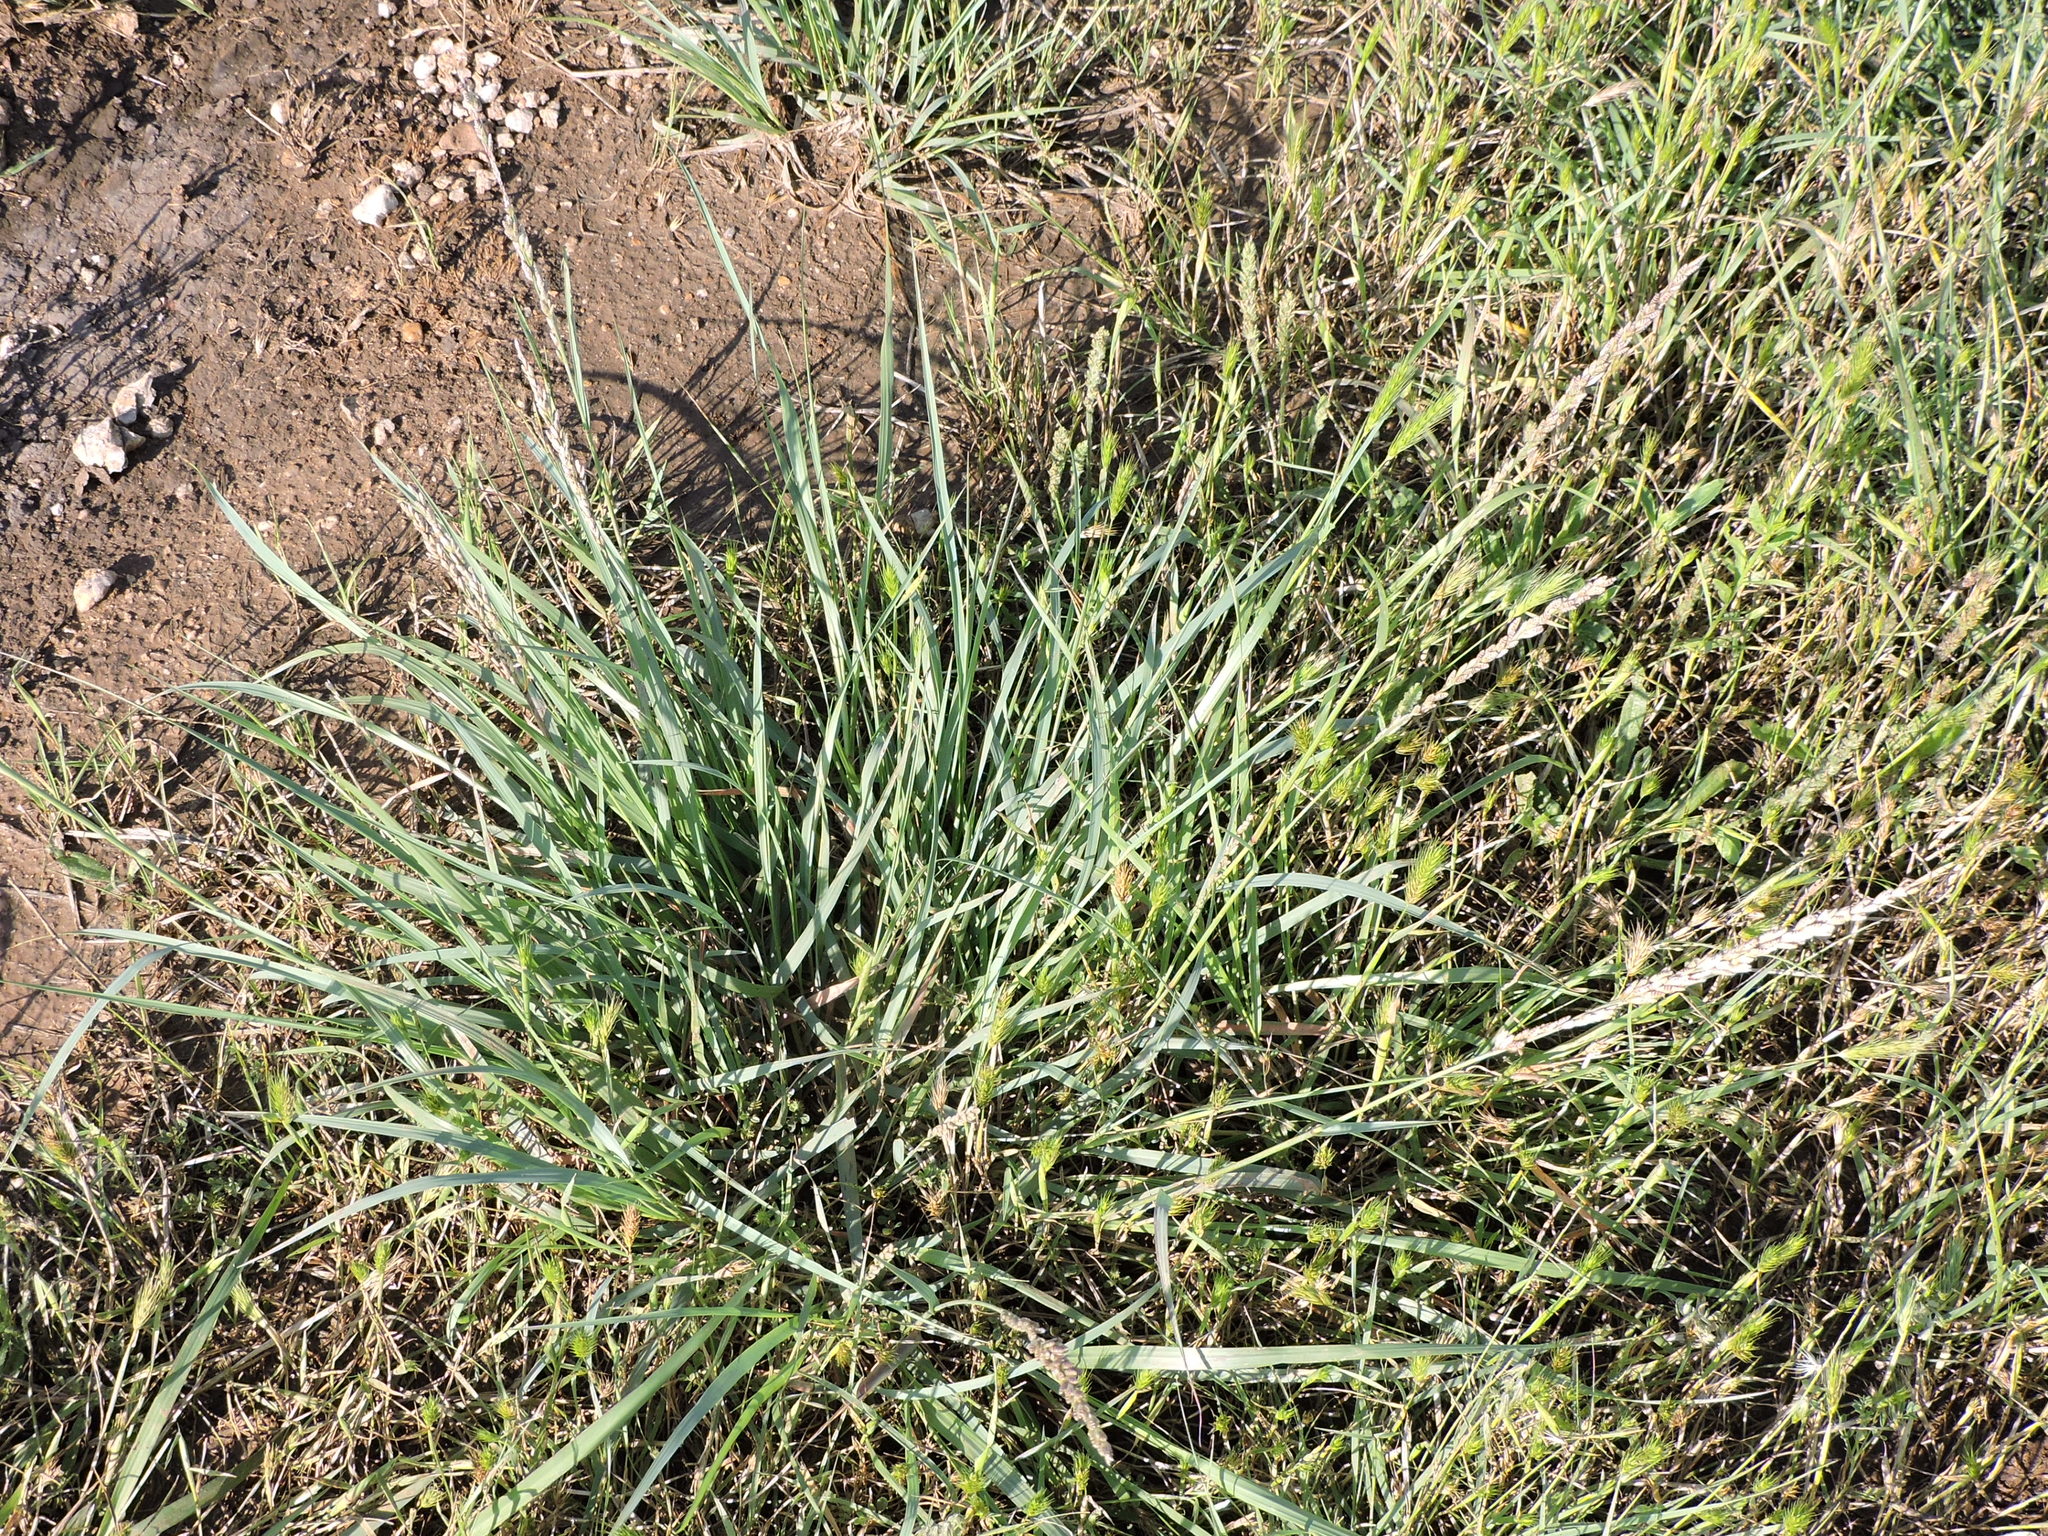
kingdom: Plantae
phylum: Tracheophyta
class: Liliopsida
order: Poales
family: Poaceae
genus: Tridens
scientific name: Tridens albescens
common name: White tridens
